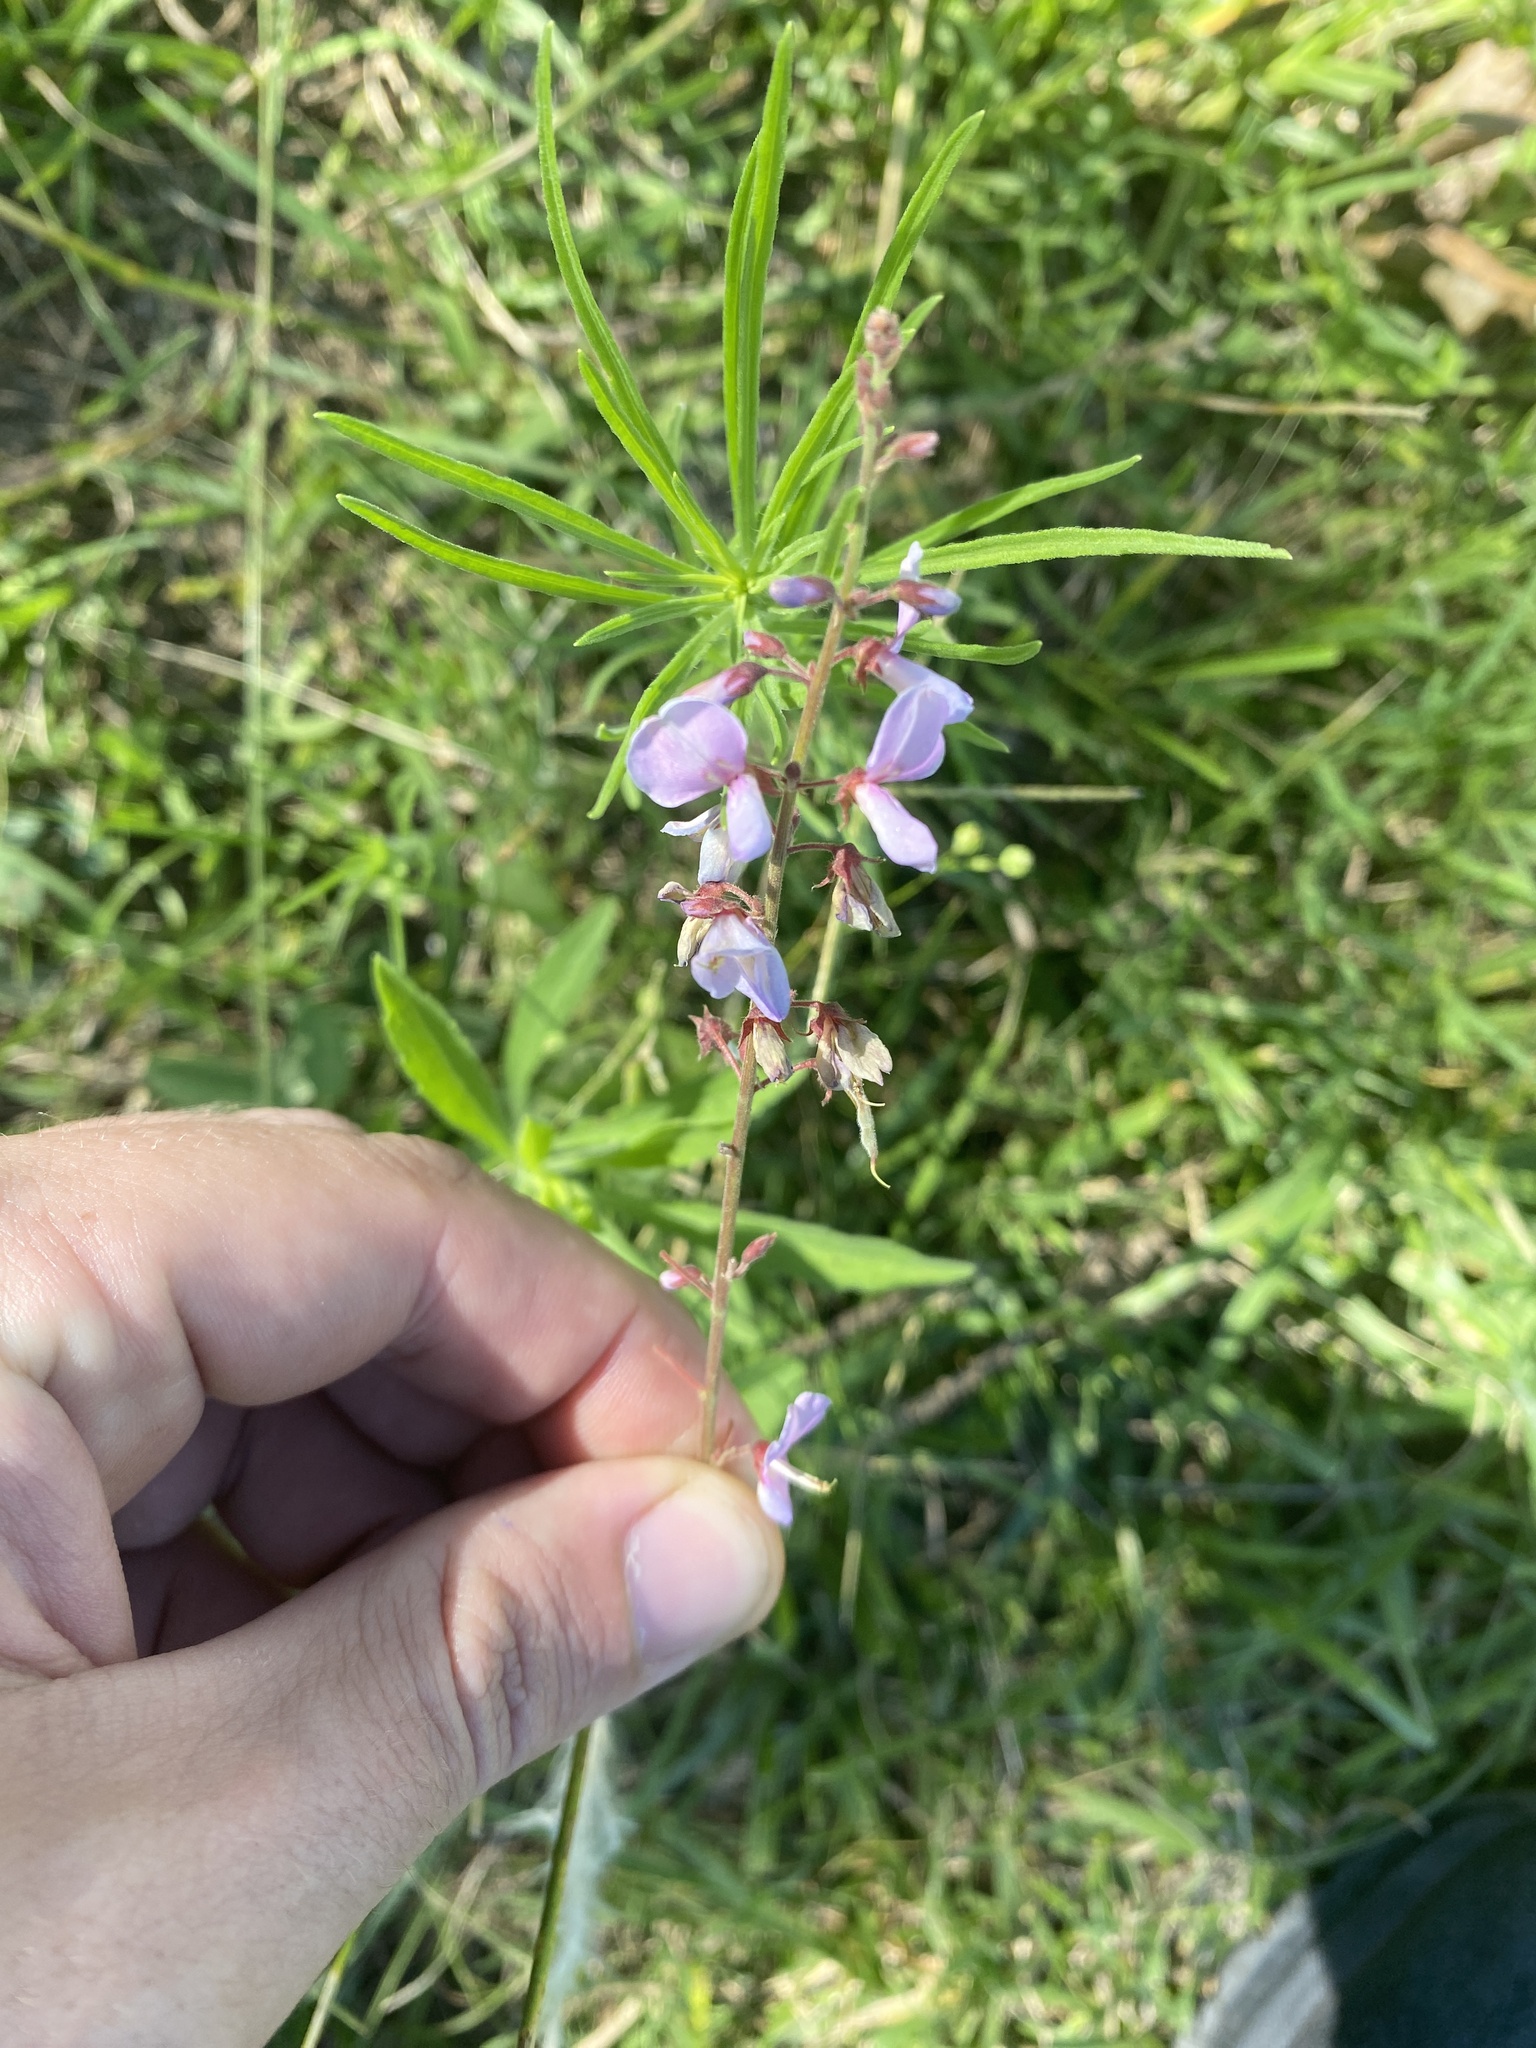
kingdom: Plantae
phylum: Tracheophyta
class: Magnoliopsida
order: Fabales
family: Fabaceae
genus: Desmodium
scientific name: Desmodium incanum
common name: Tickclover
